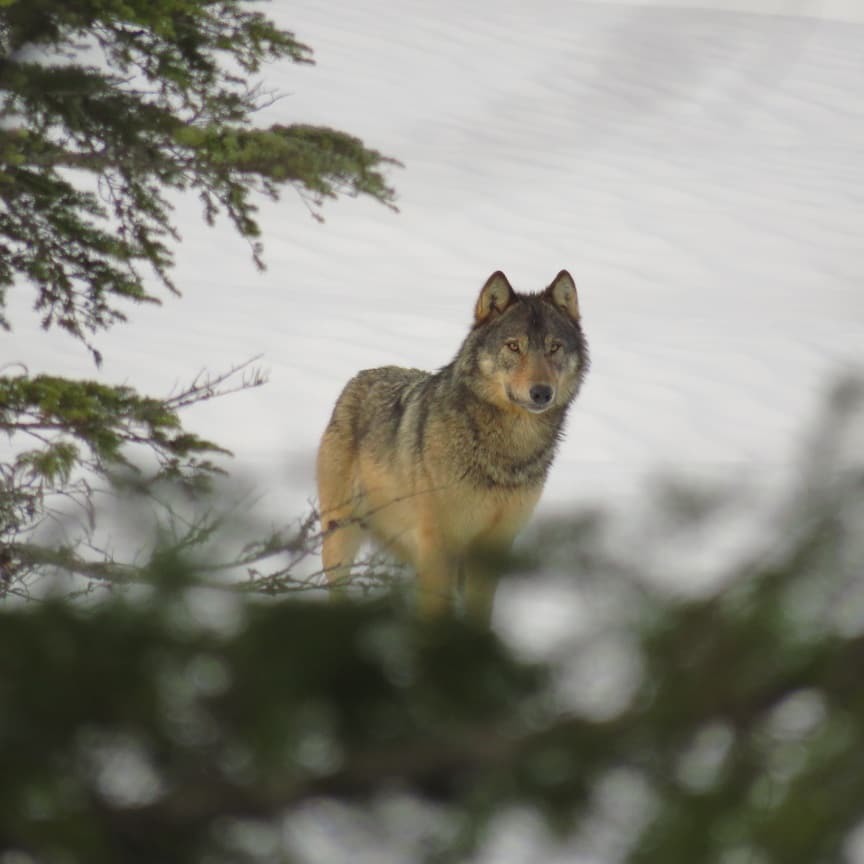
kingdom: Animalia
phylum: Chordata
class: Mammalia
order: Carnivora
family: Canidae
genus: Canis
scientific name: Canis lupus
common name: Gray wolf
